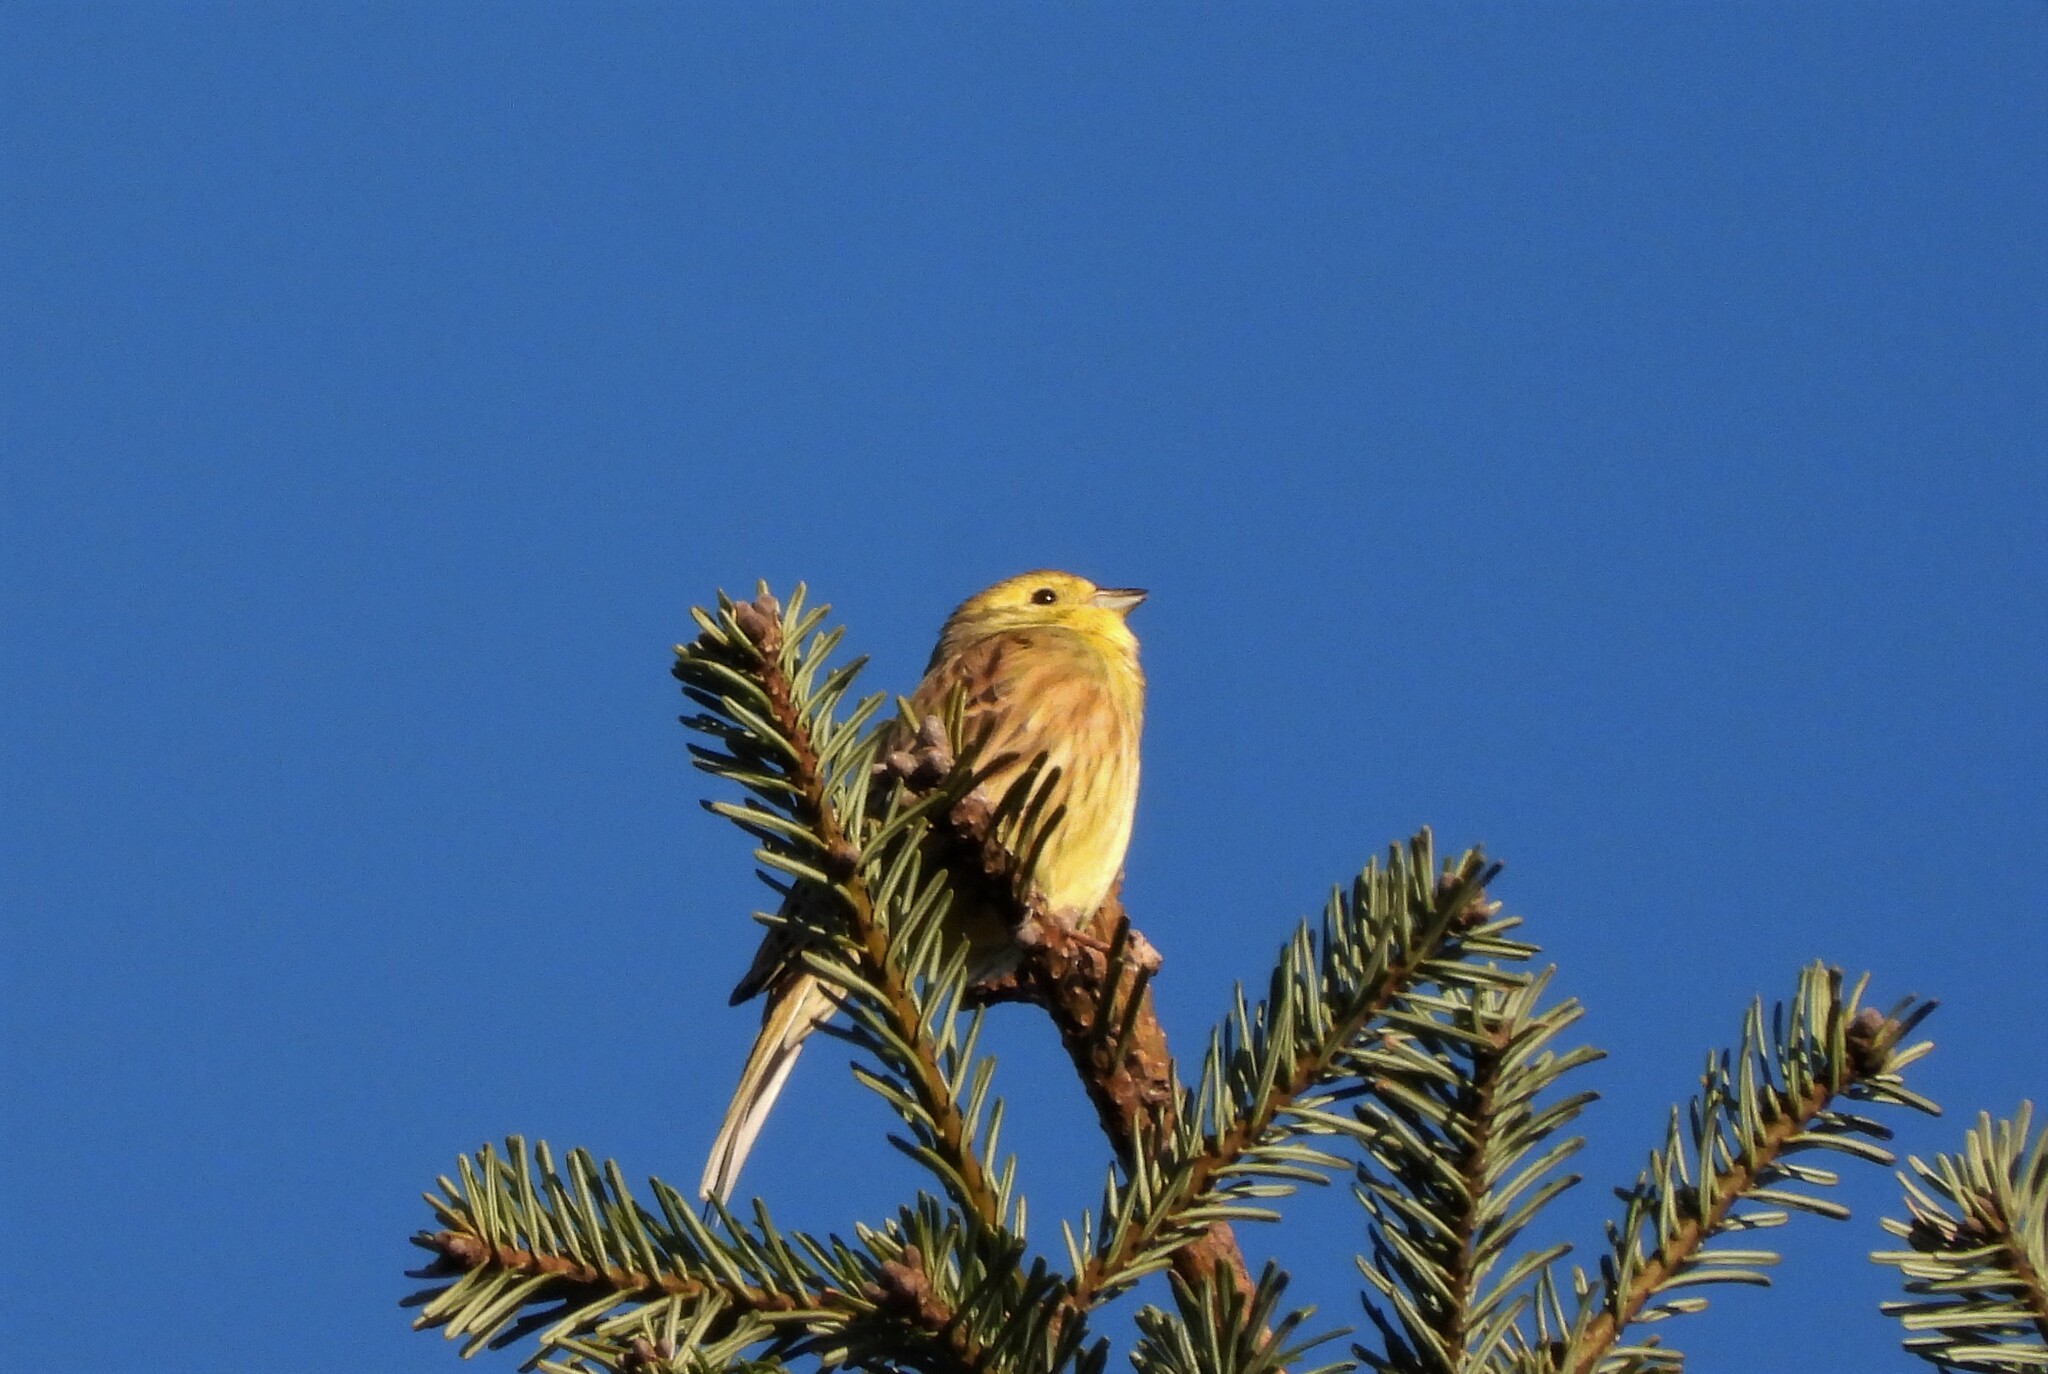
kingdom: Animalia
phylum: Chordata
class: Aves
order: Passeriformes
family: Emberizidae
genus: Emberiza
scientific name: Emberiza citrinella
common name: Yellowhammer
